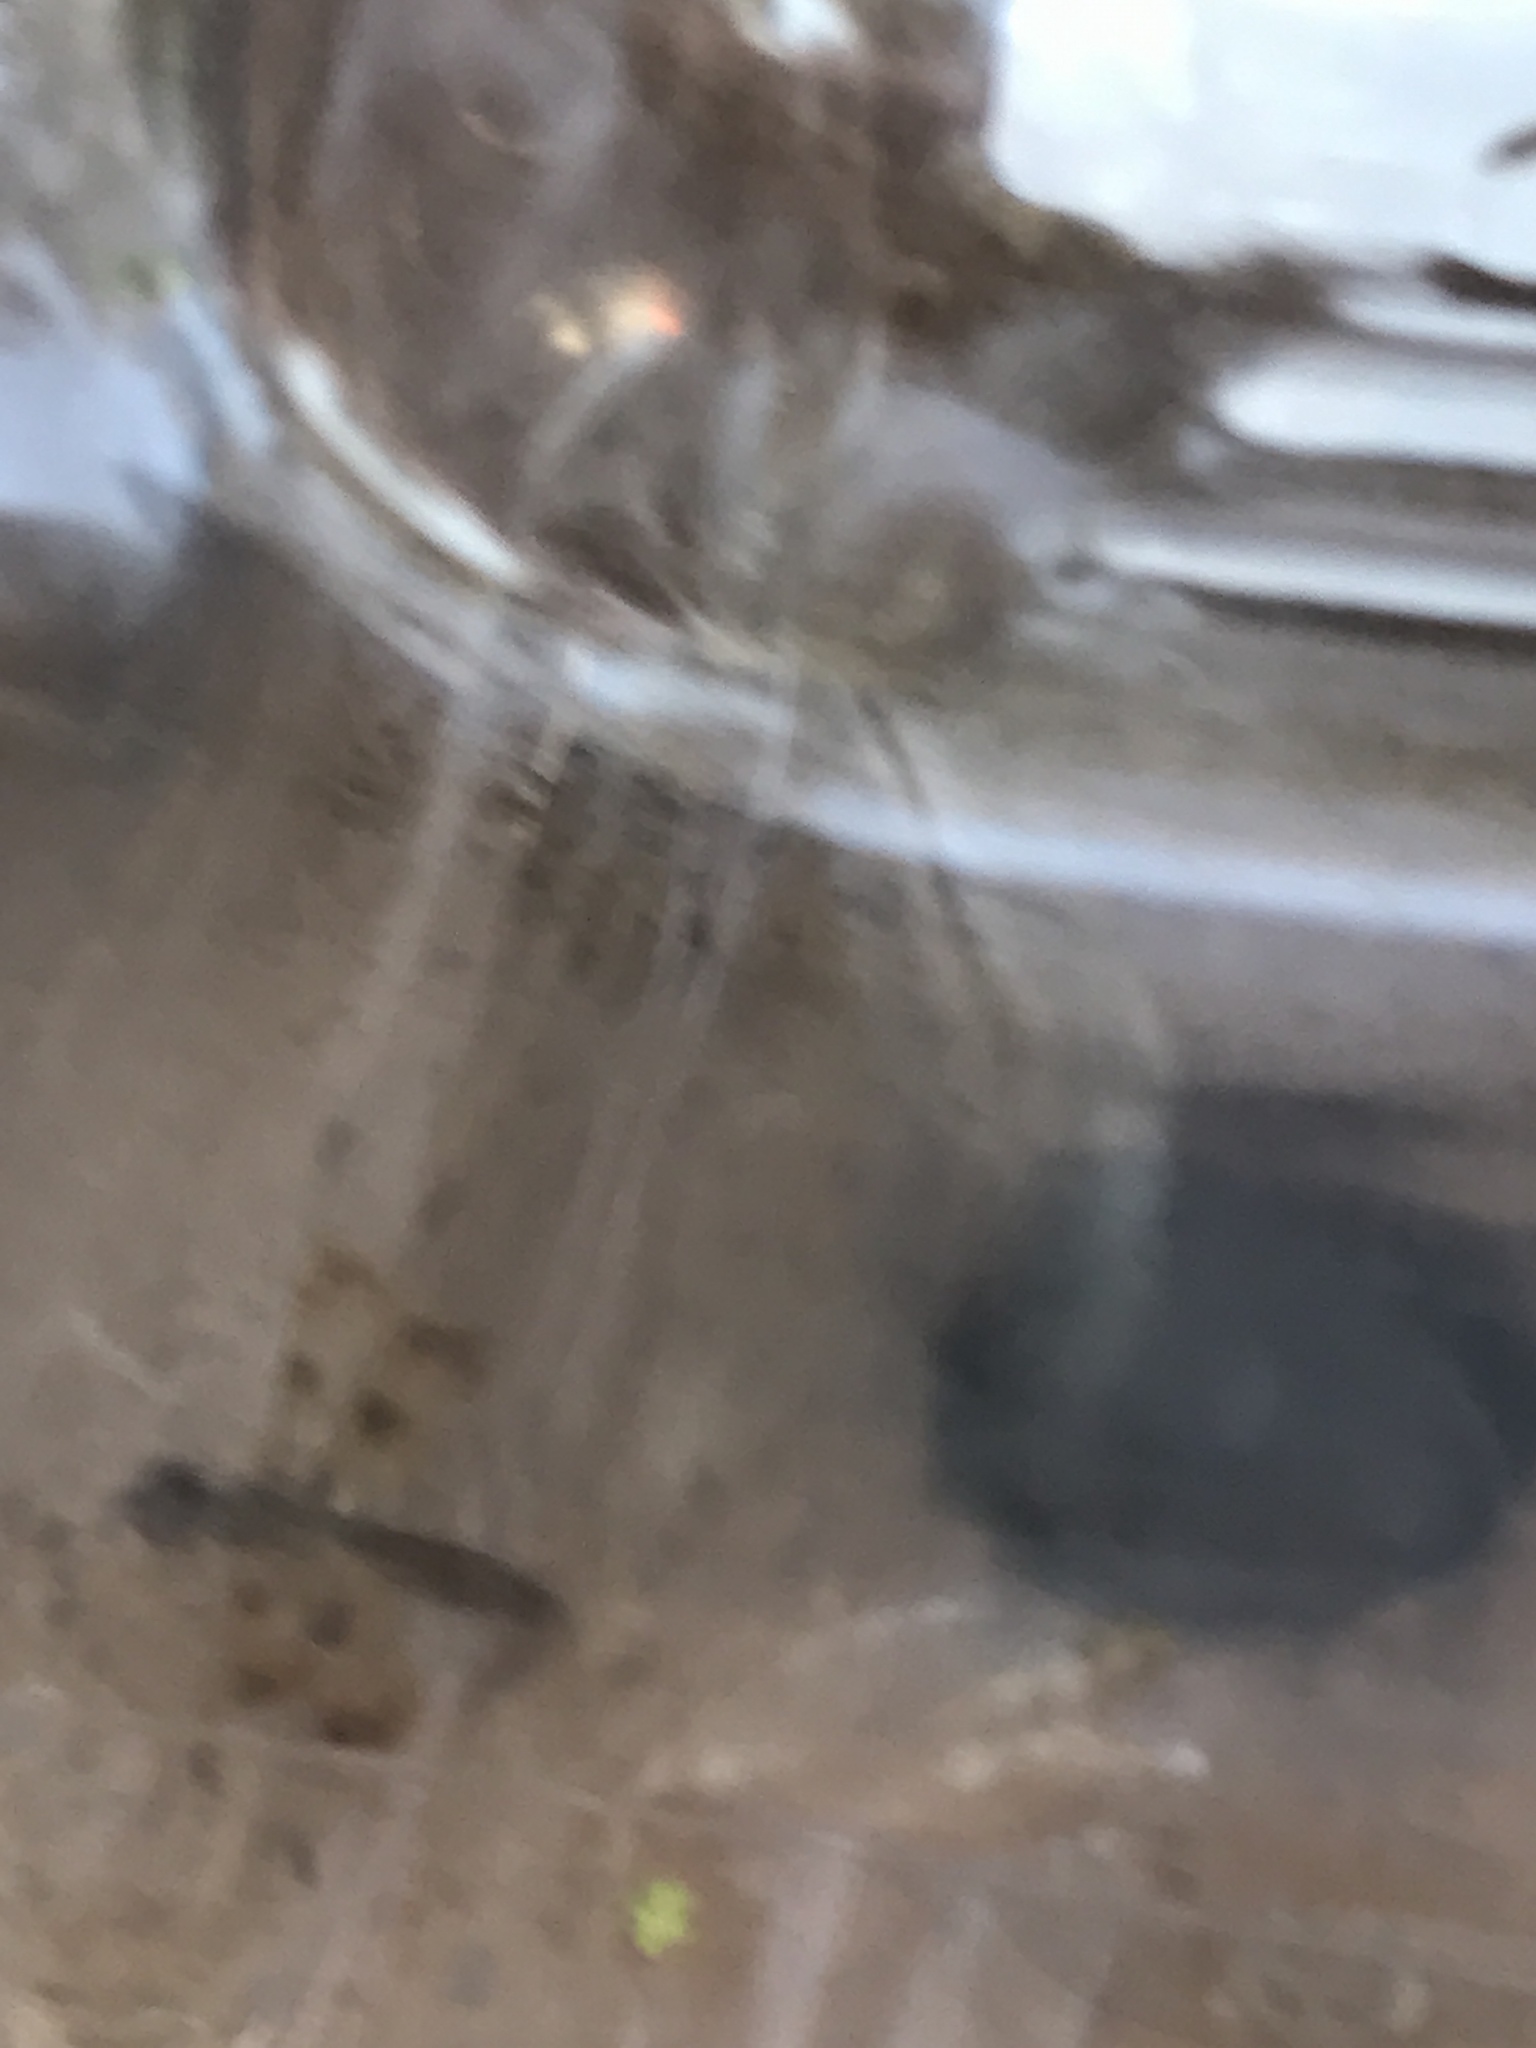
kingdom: Animalia
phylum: Arthropoda
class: Insecta
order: Odonata
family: Libellulidae
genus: Perithemis
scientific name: Perithemis tenera
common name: Eastern amberwing
